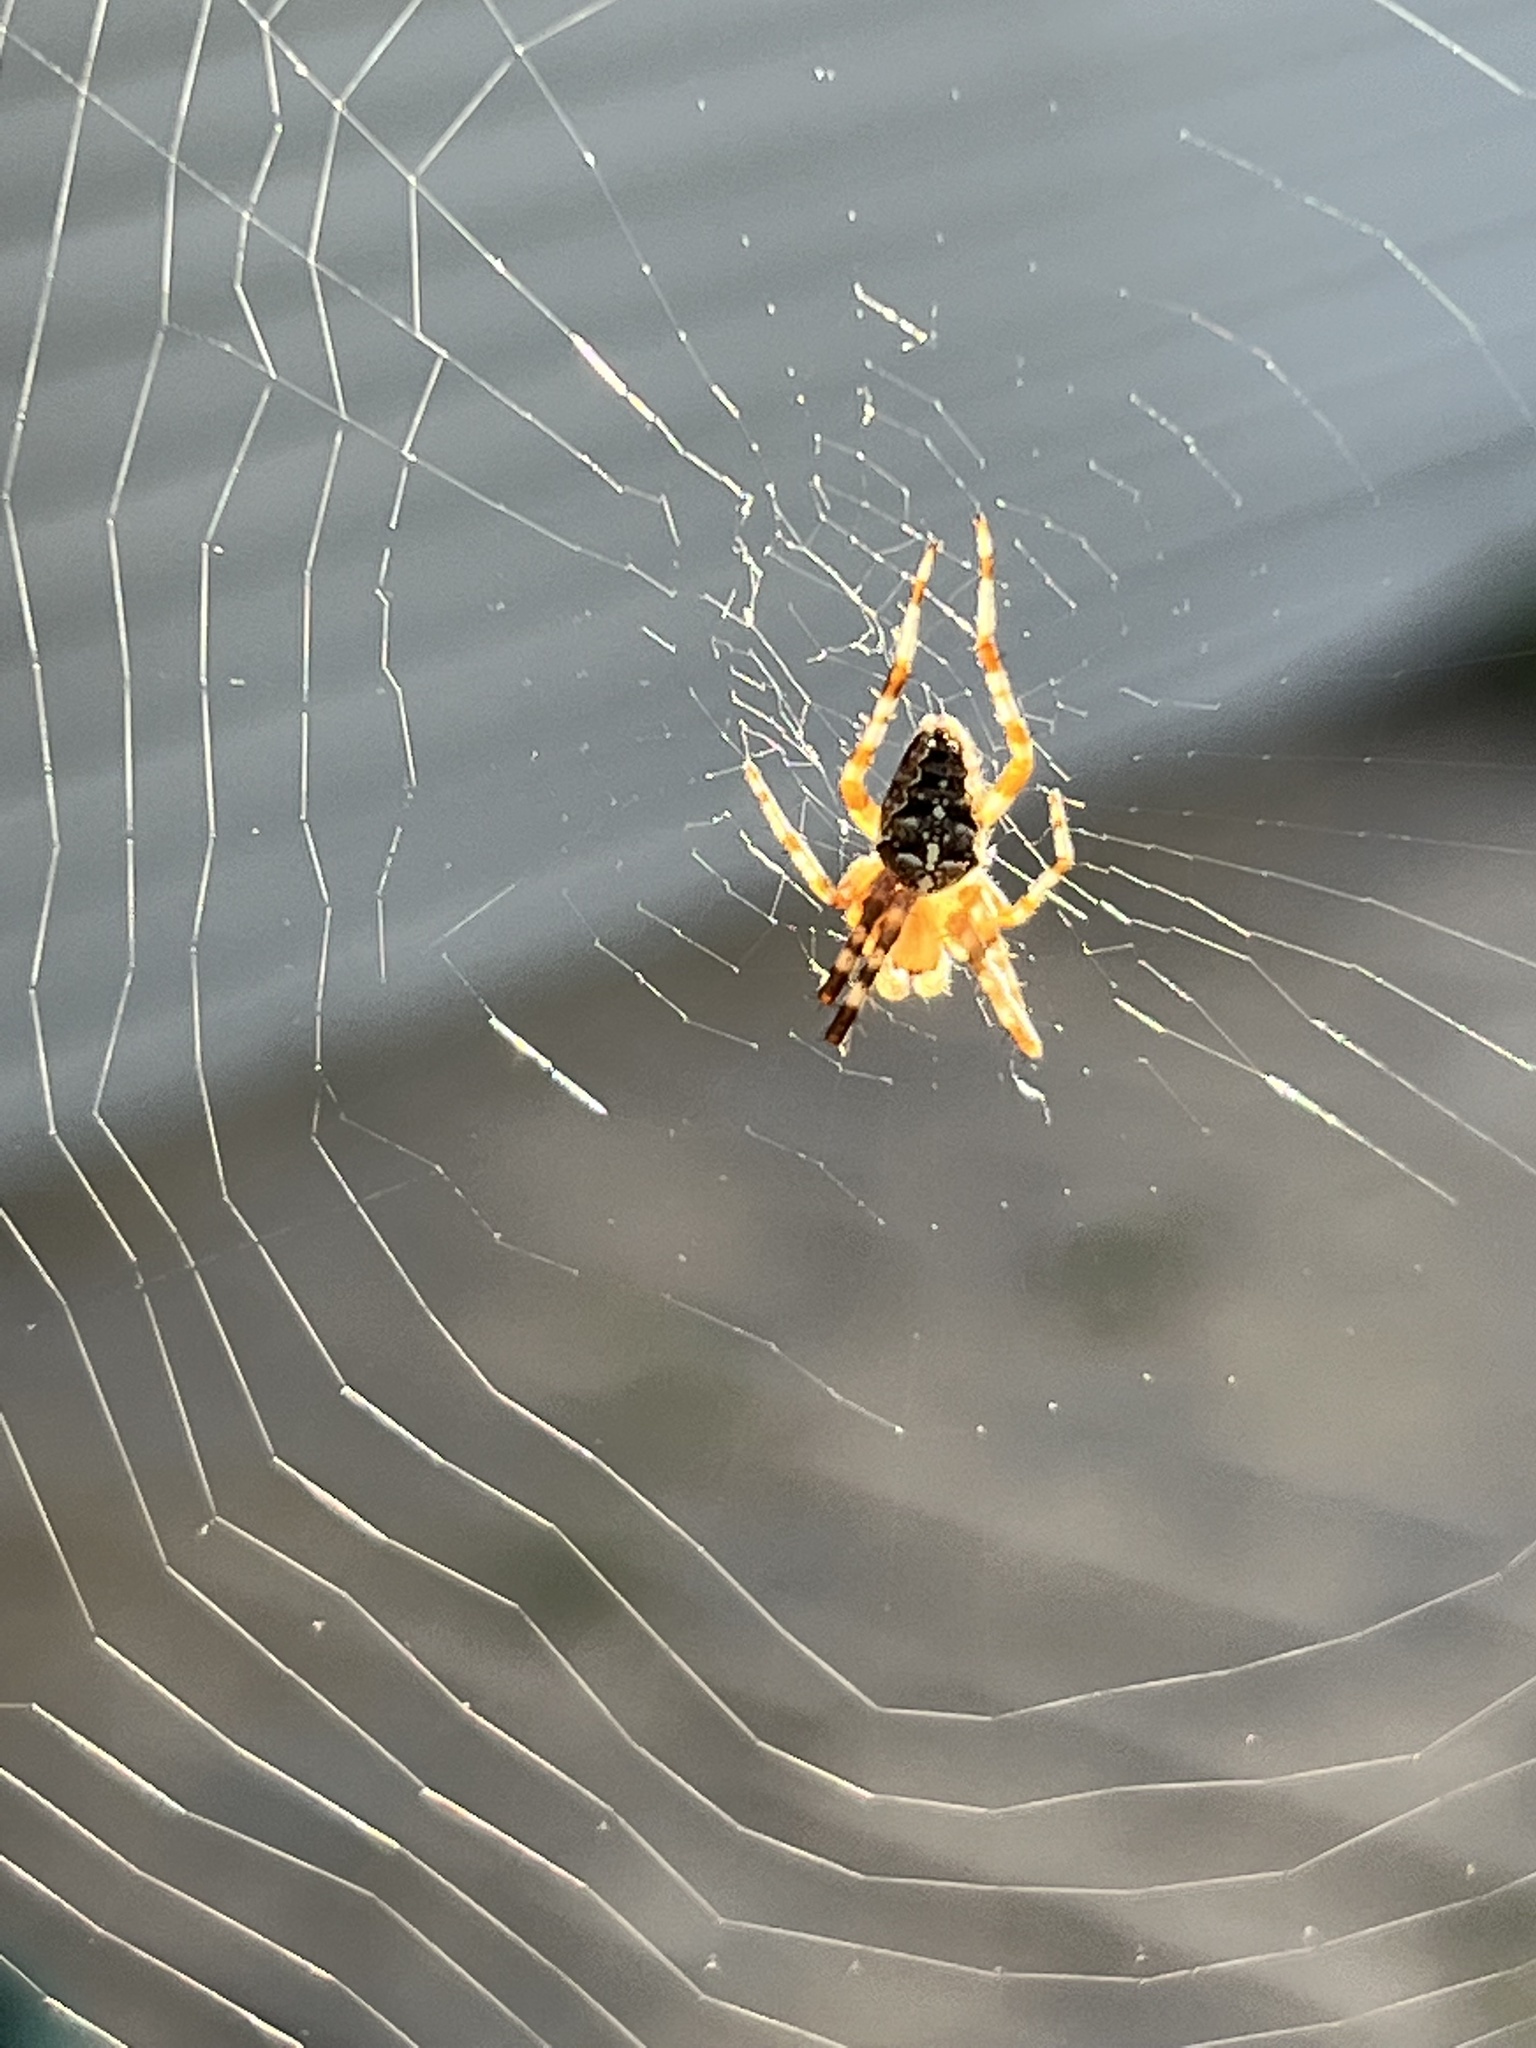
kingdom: Animalia
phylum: Arthropoda
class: Arachnida
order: Araneae
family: Araneidae
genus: Araneus
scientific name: Araneus diadematus
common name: Cross orbweaver
